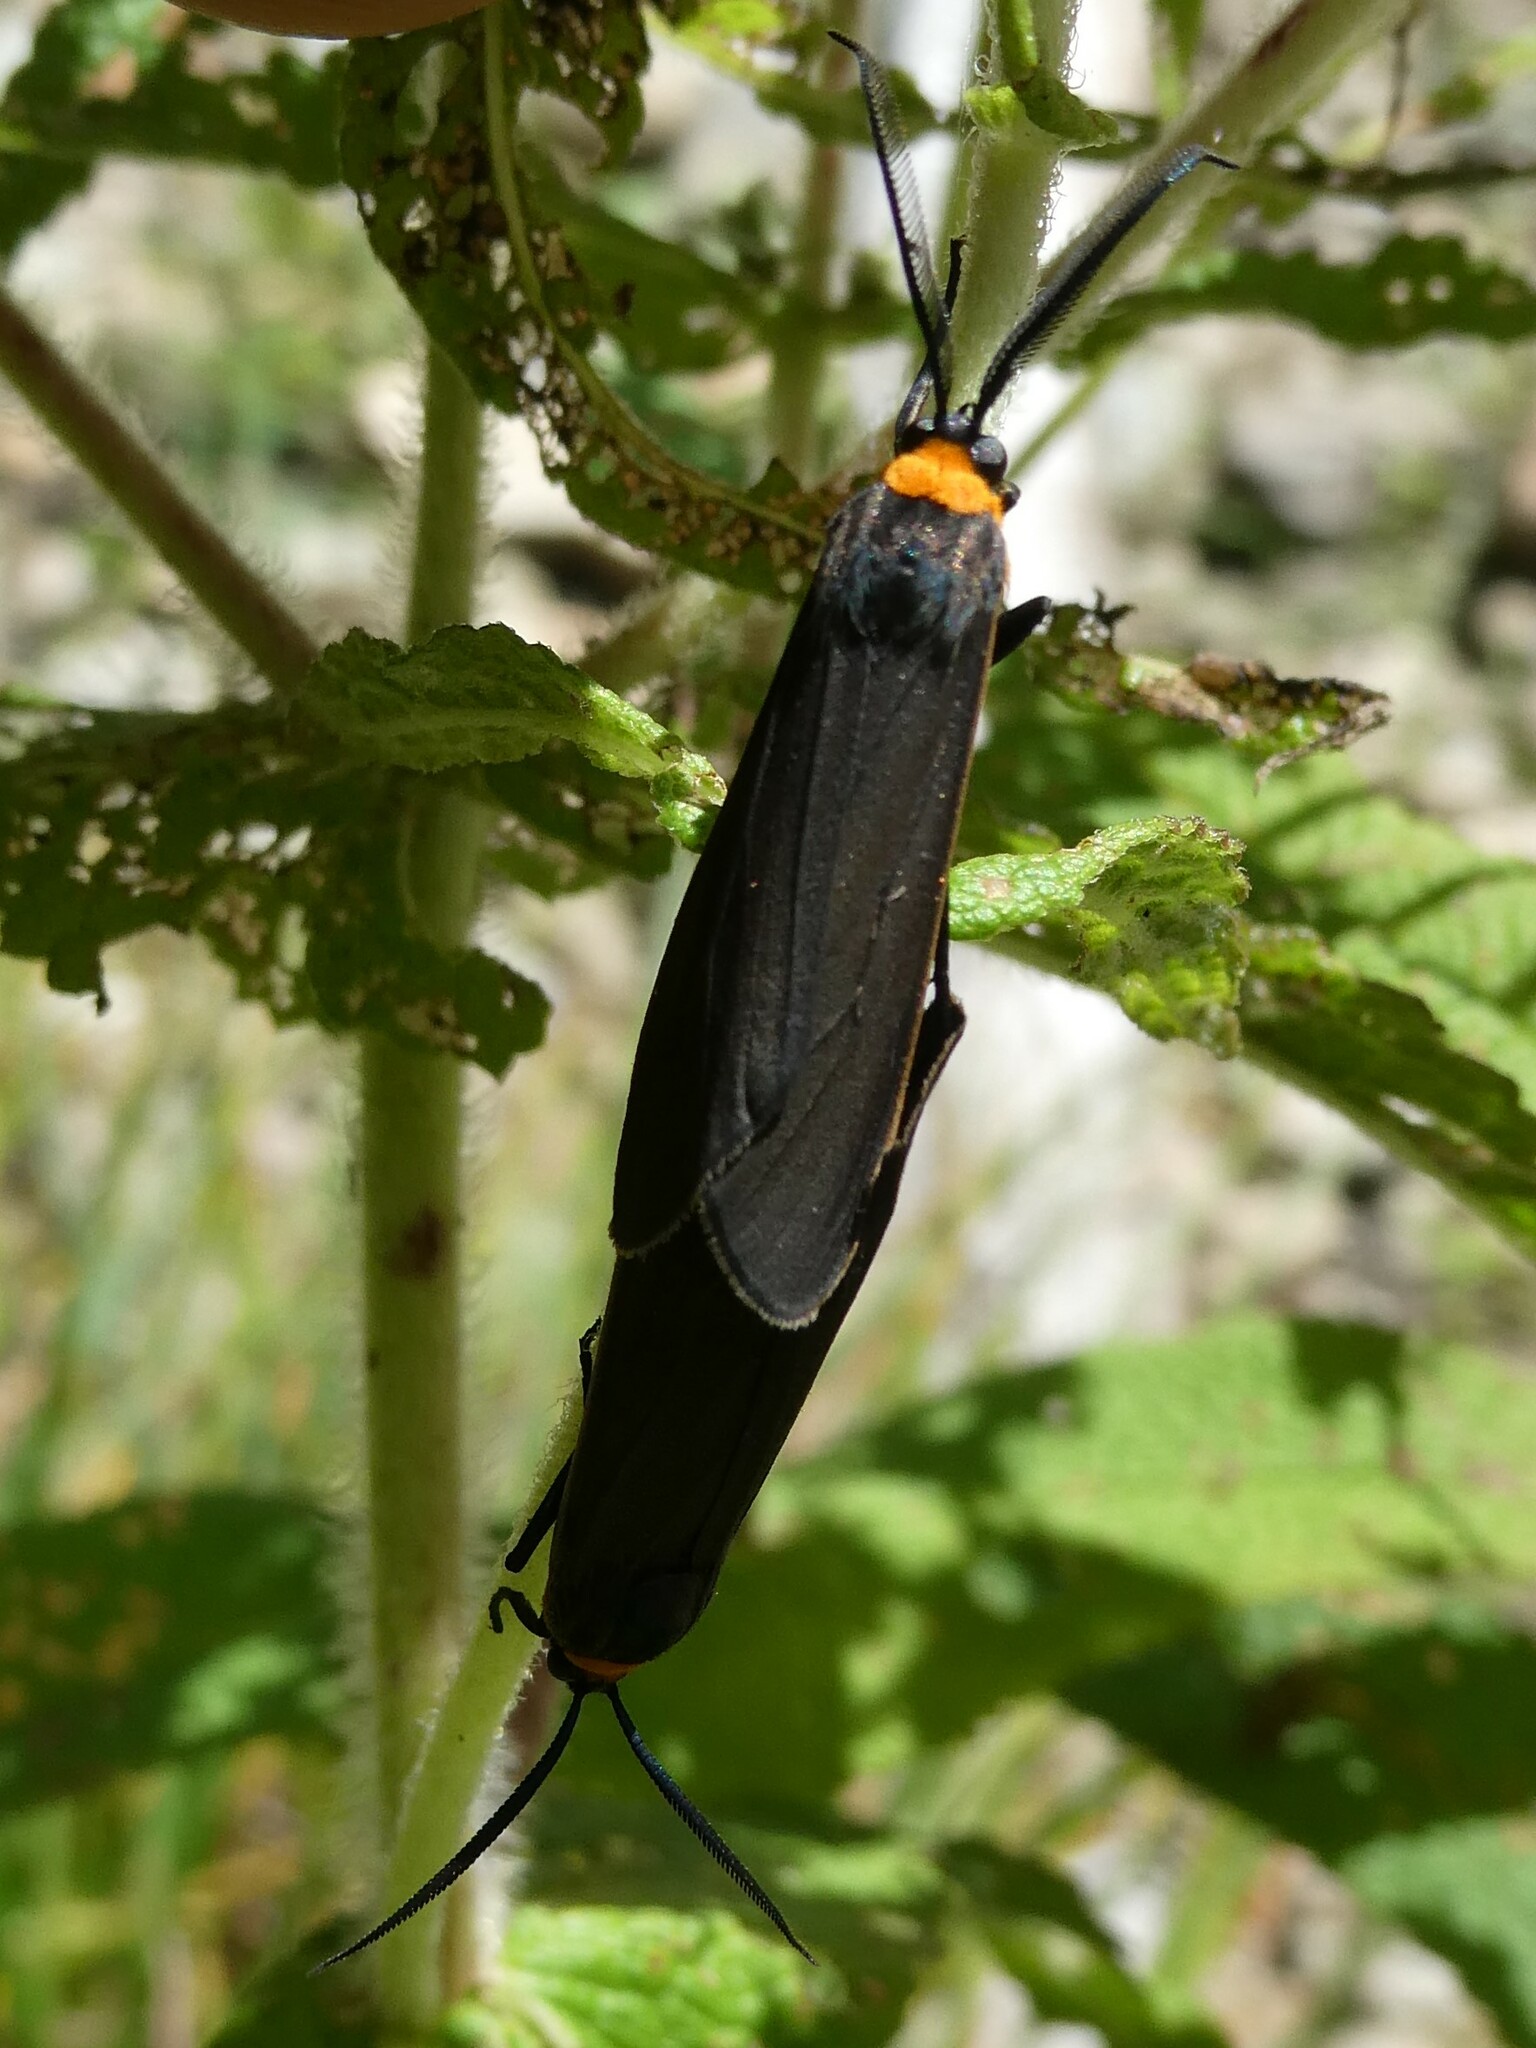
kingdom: Animalia
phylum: Arthropoda
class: Insecta
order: Lepidoptera
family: Erebidae
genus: Cisseps
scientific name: Cisseps fulvicollis
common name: Yellow-collared scape moth
